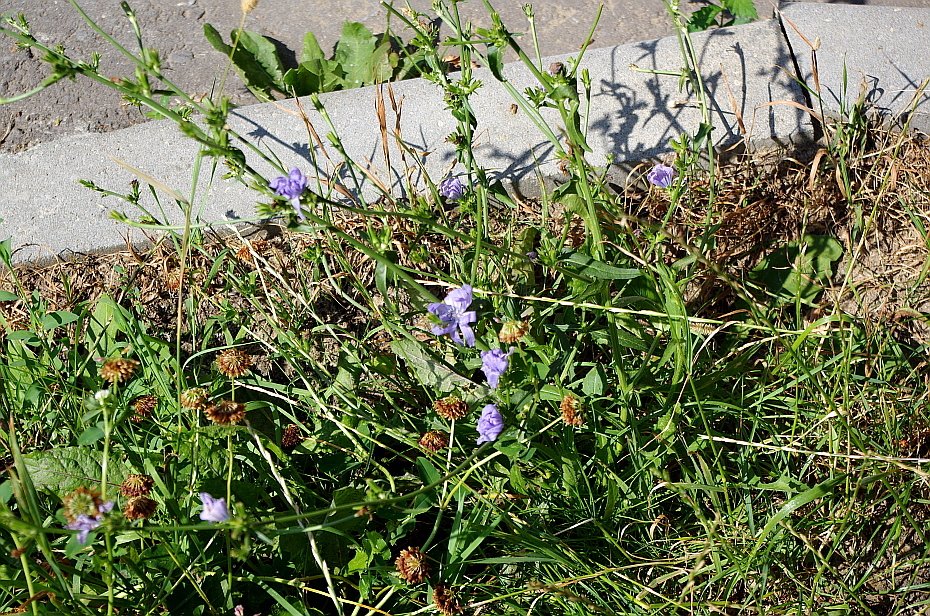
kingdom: Plantae
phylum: Tracheophyta
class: Magnoliopsida
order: Asterales
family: Asteraceae
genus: Cichorium
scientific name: Cichorium intybus
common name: Chicory
